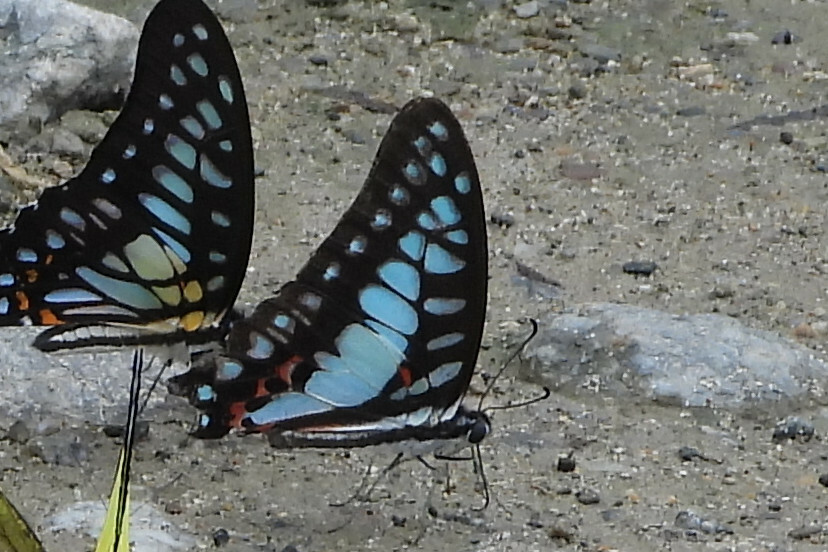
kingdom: Animalia
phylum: Arthropoda
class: Insecta
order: Lepidoptera
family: Papilionidae
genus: Graphium
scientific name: Graphium eurypylus
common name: Great jay
